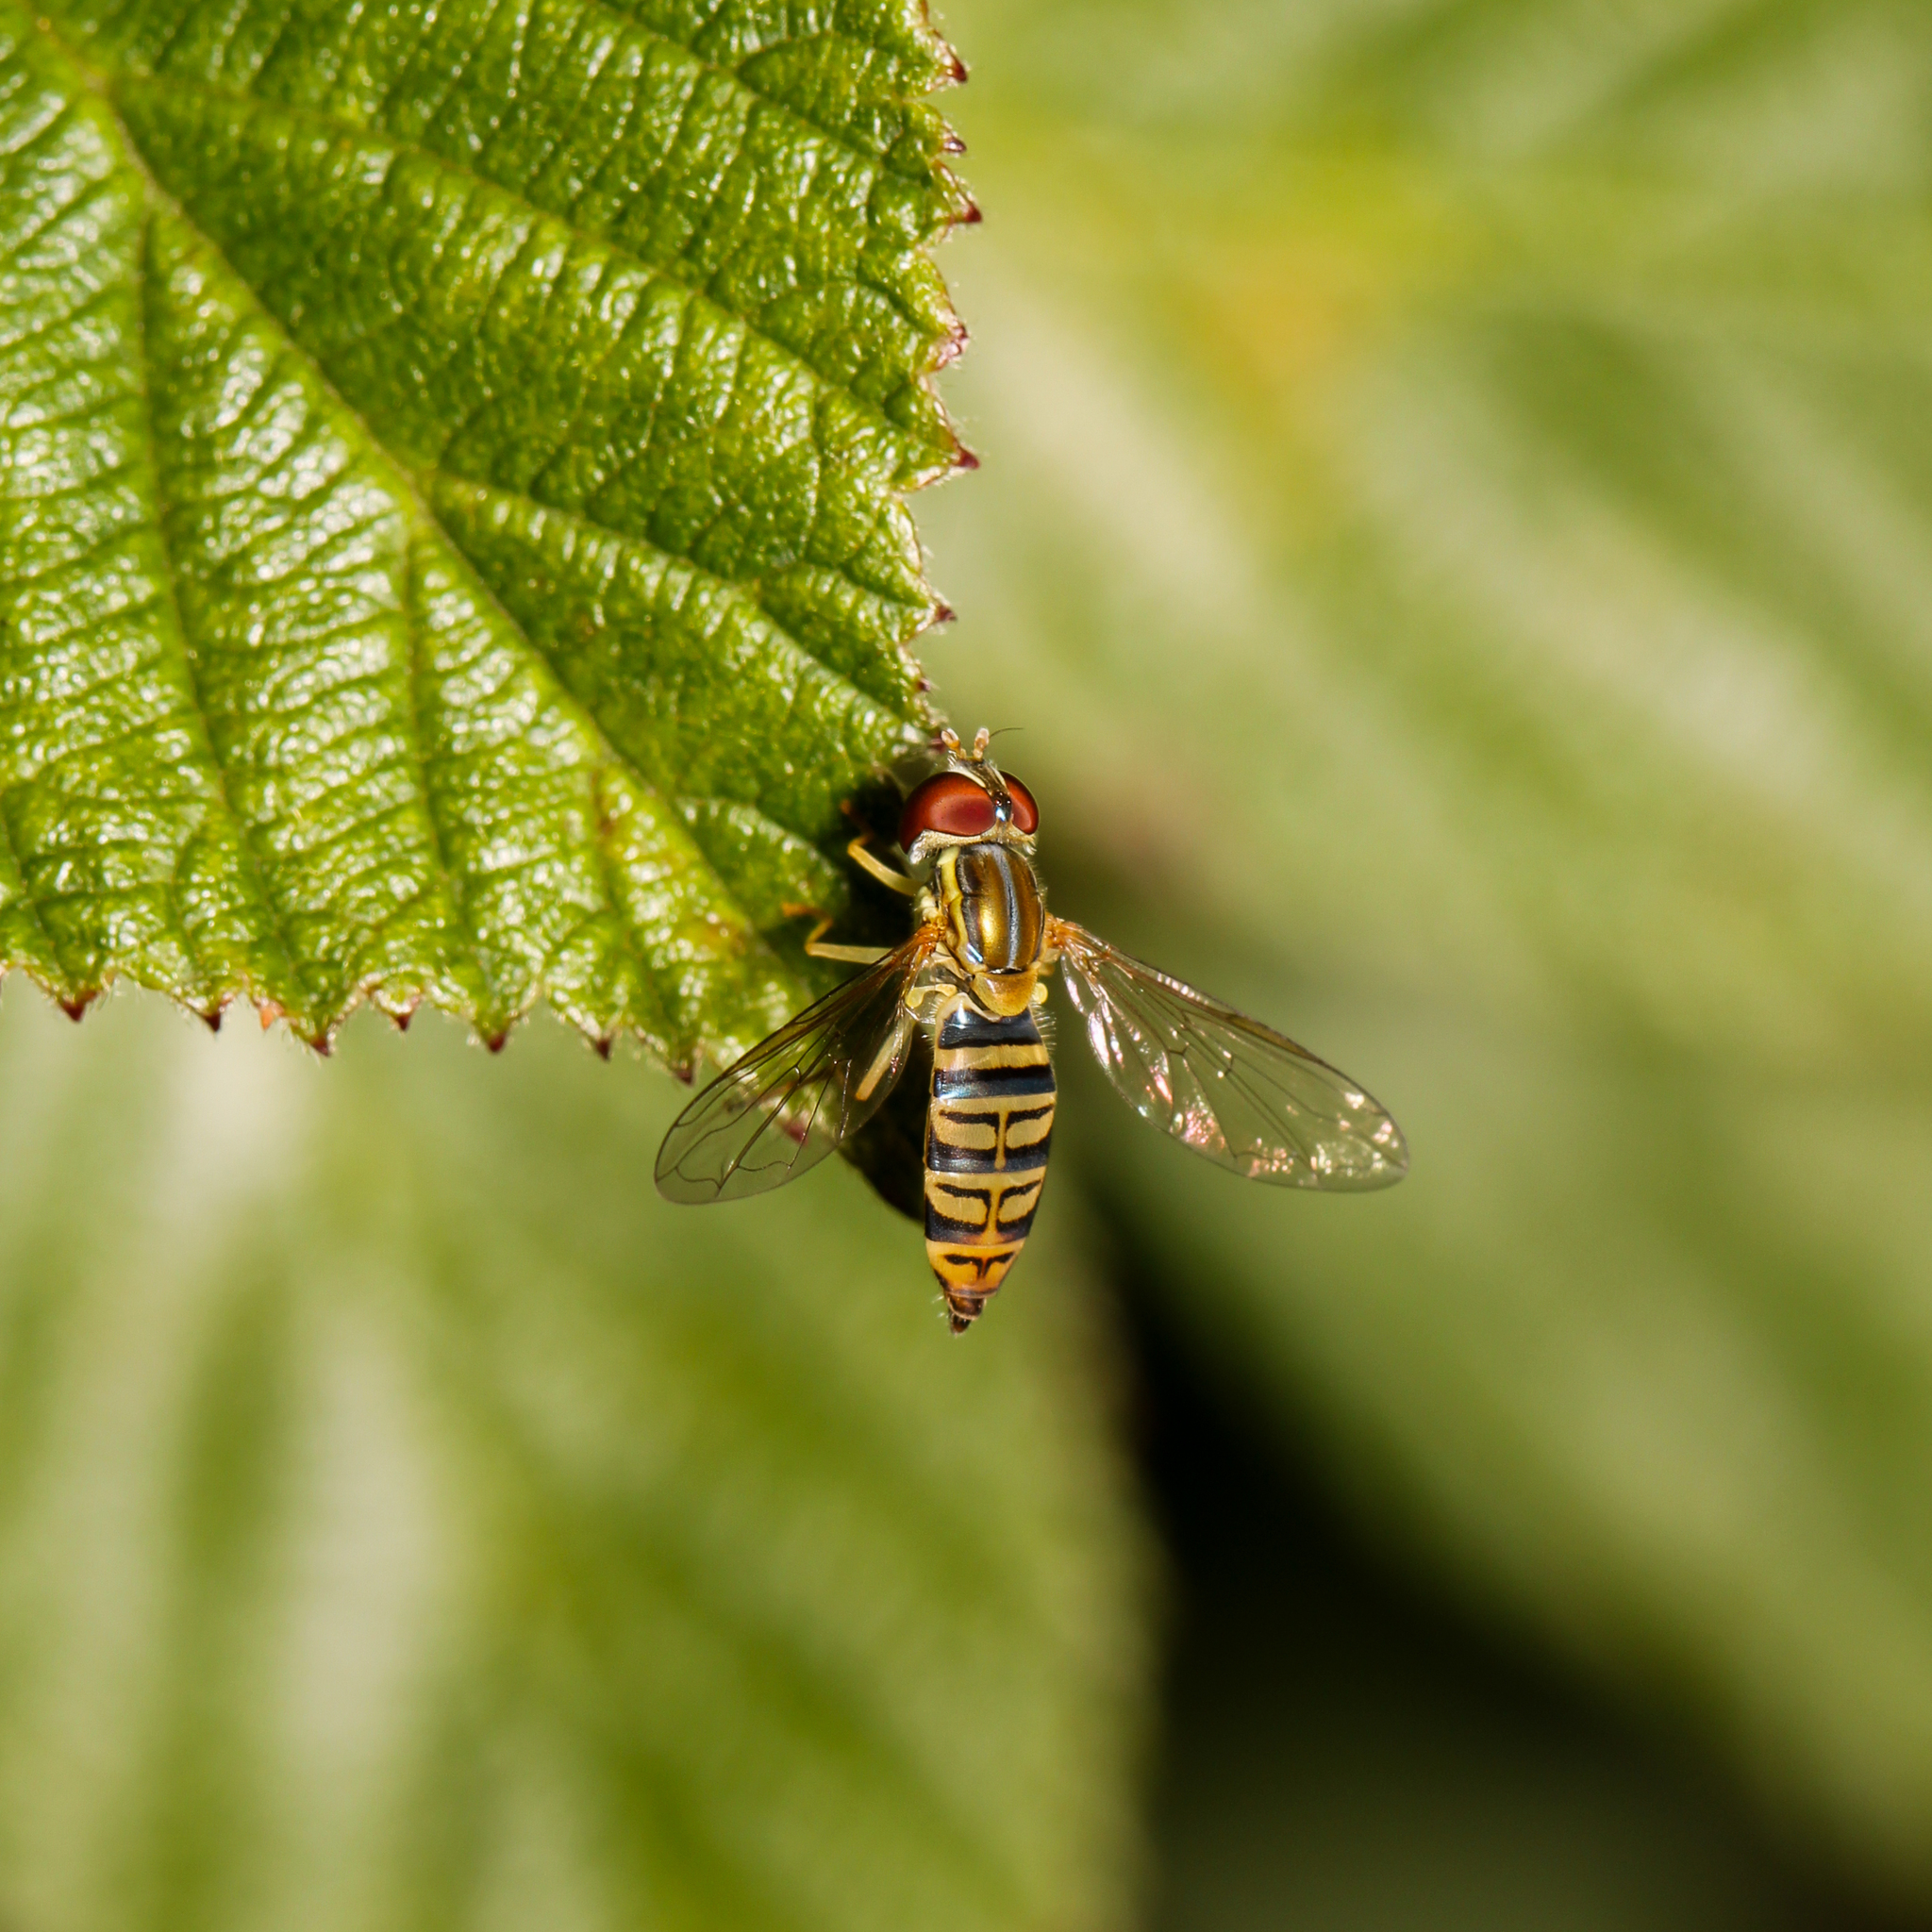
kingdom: Animalia
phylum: Arthropoda
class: Insecta
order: Diptera
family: Syrphidae
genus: Toxomerus
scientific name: Toxomerus politus
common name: Maize calligrapher
